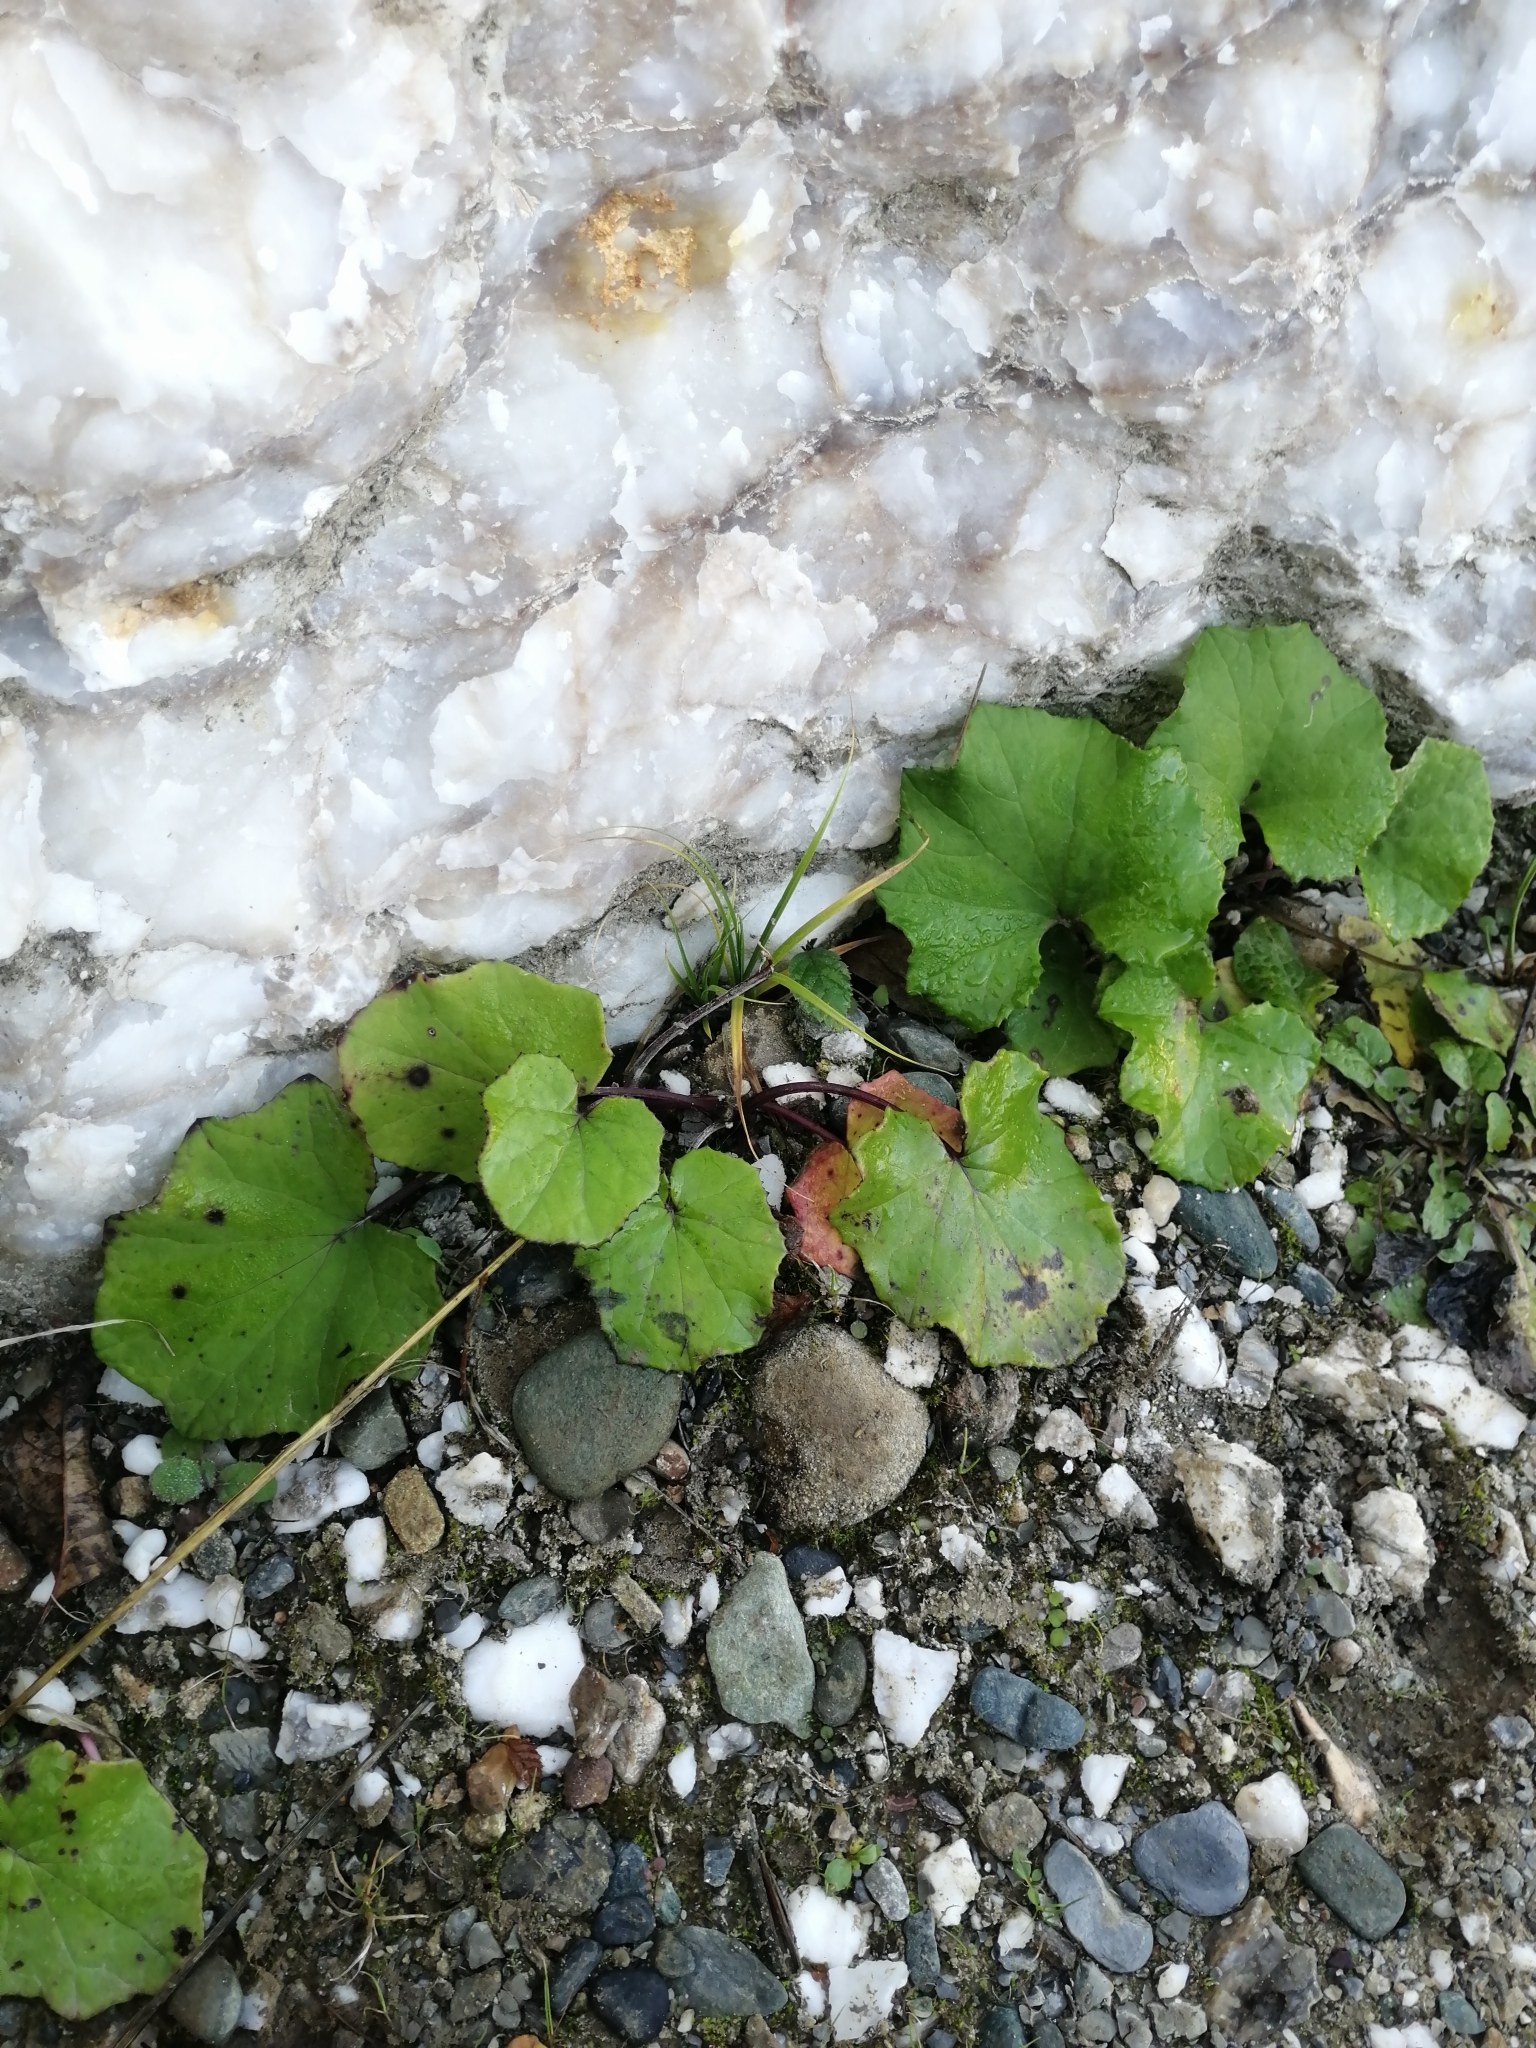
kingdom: Plantae
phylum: Tracheophyta
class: Magnoliopsida
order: Asterales
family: Asteraceae
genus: Tussilago
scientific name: Tussilago farfara
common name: Coltsfoot
